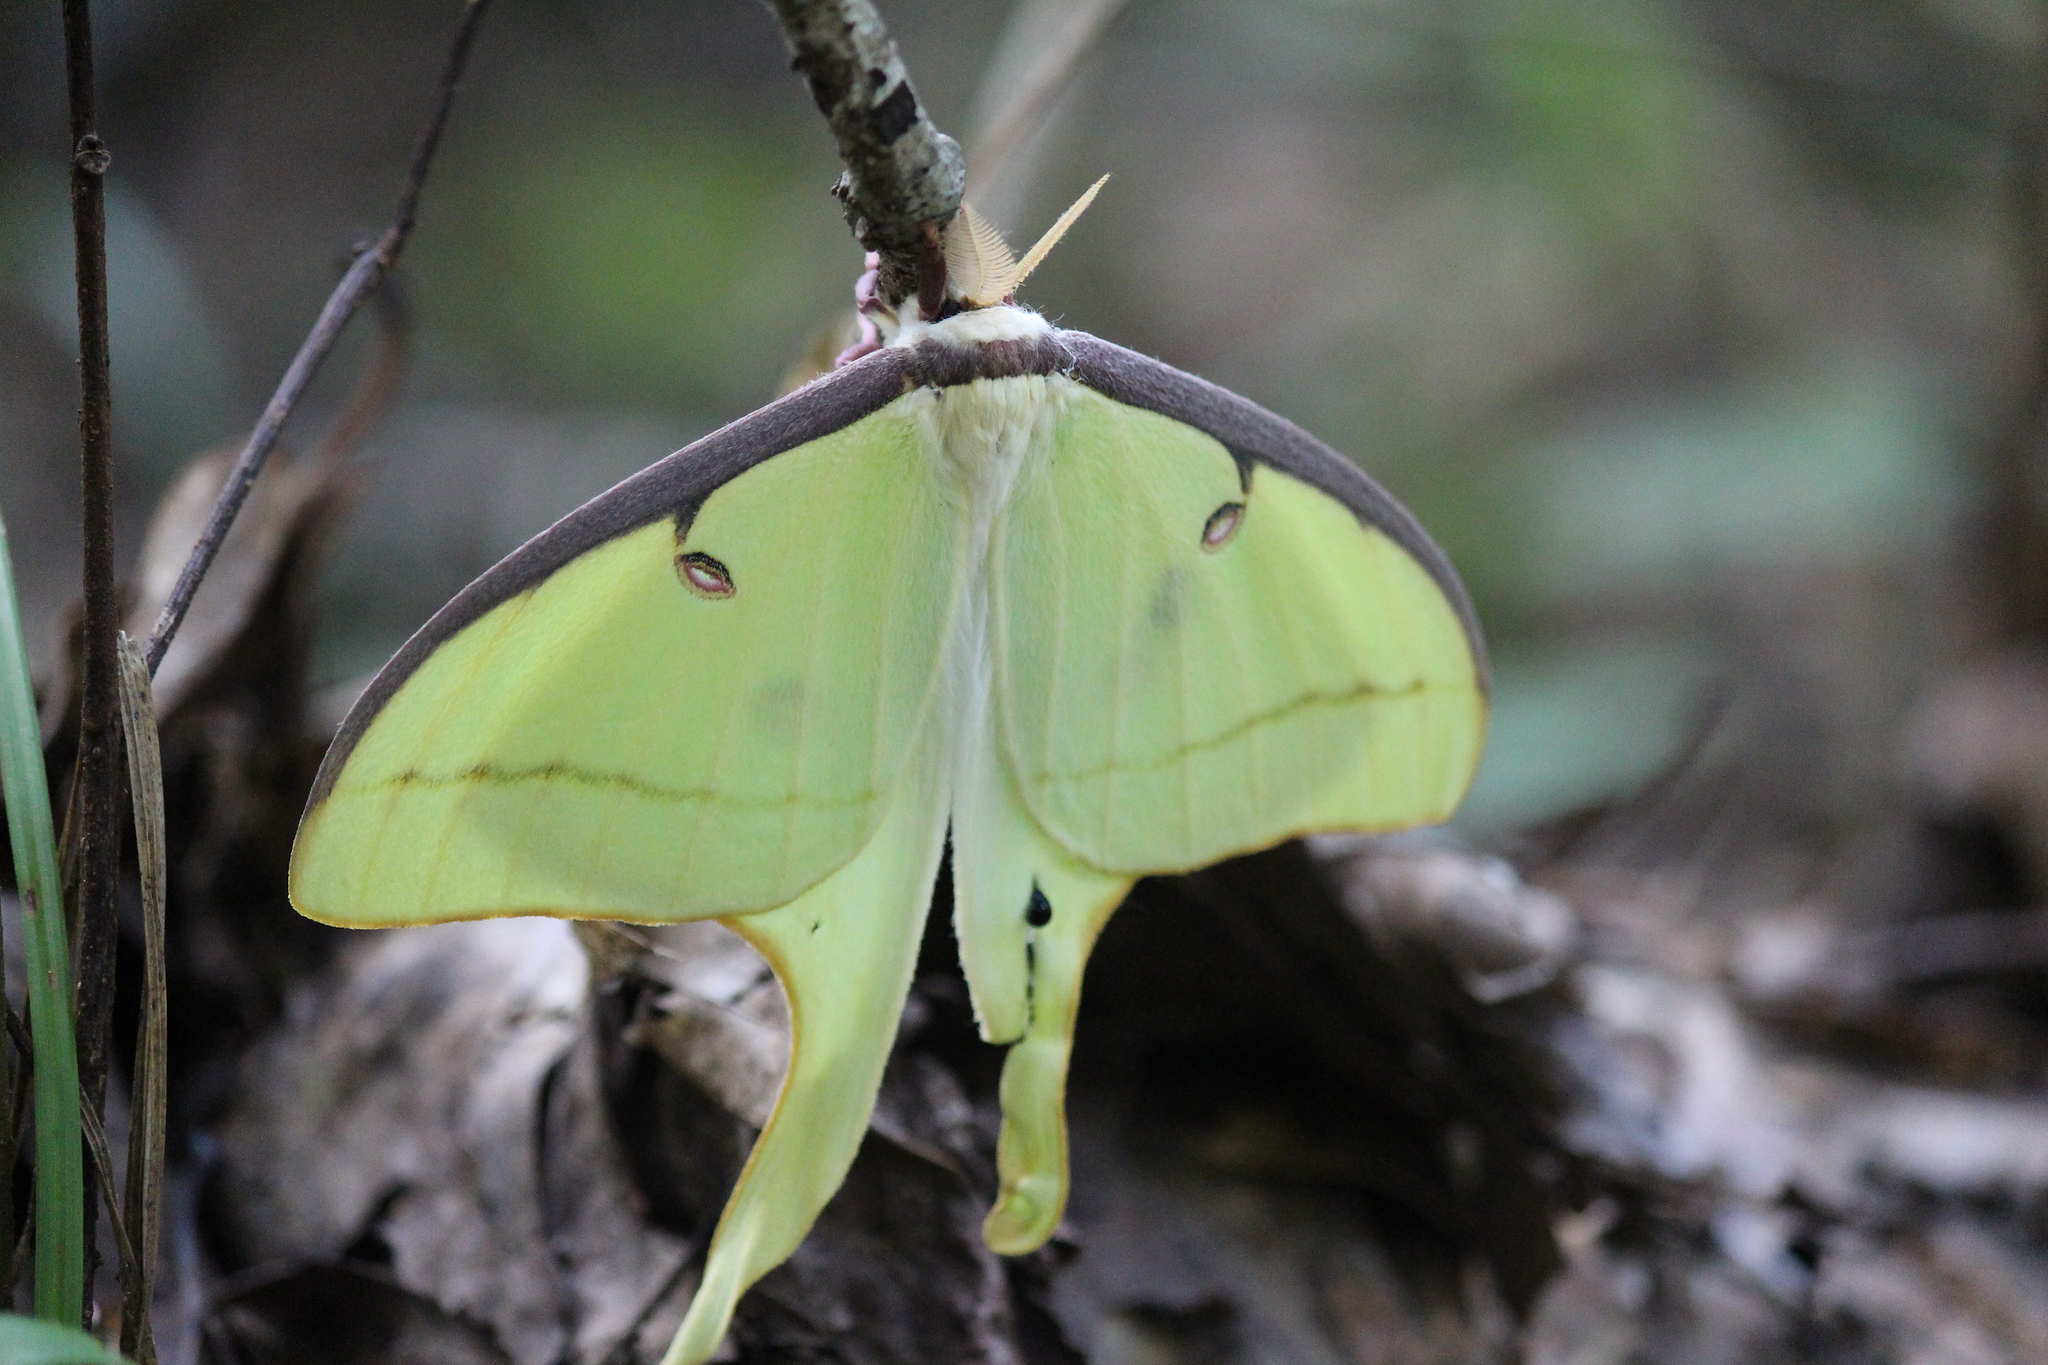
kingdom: Animalia
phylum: Arthropoda
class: Insecta
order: Lepidoptera
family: Saturniidae
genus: Actias
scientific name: Actias luna
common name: Luna moth
